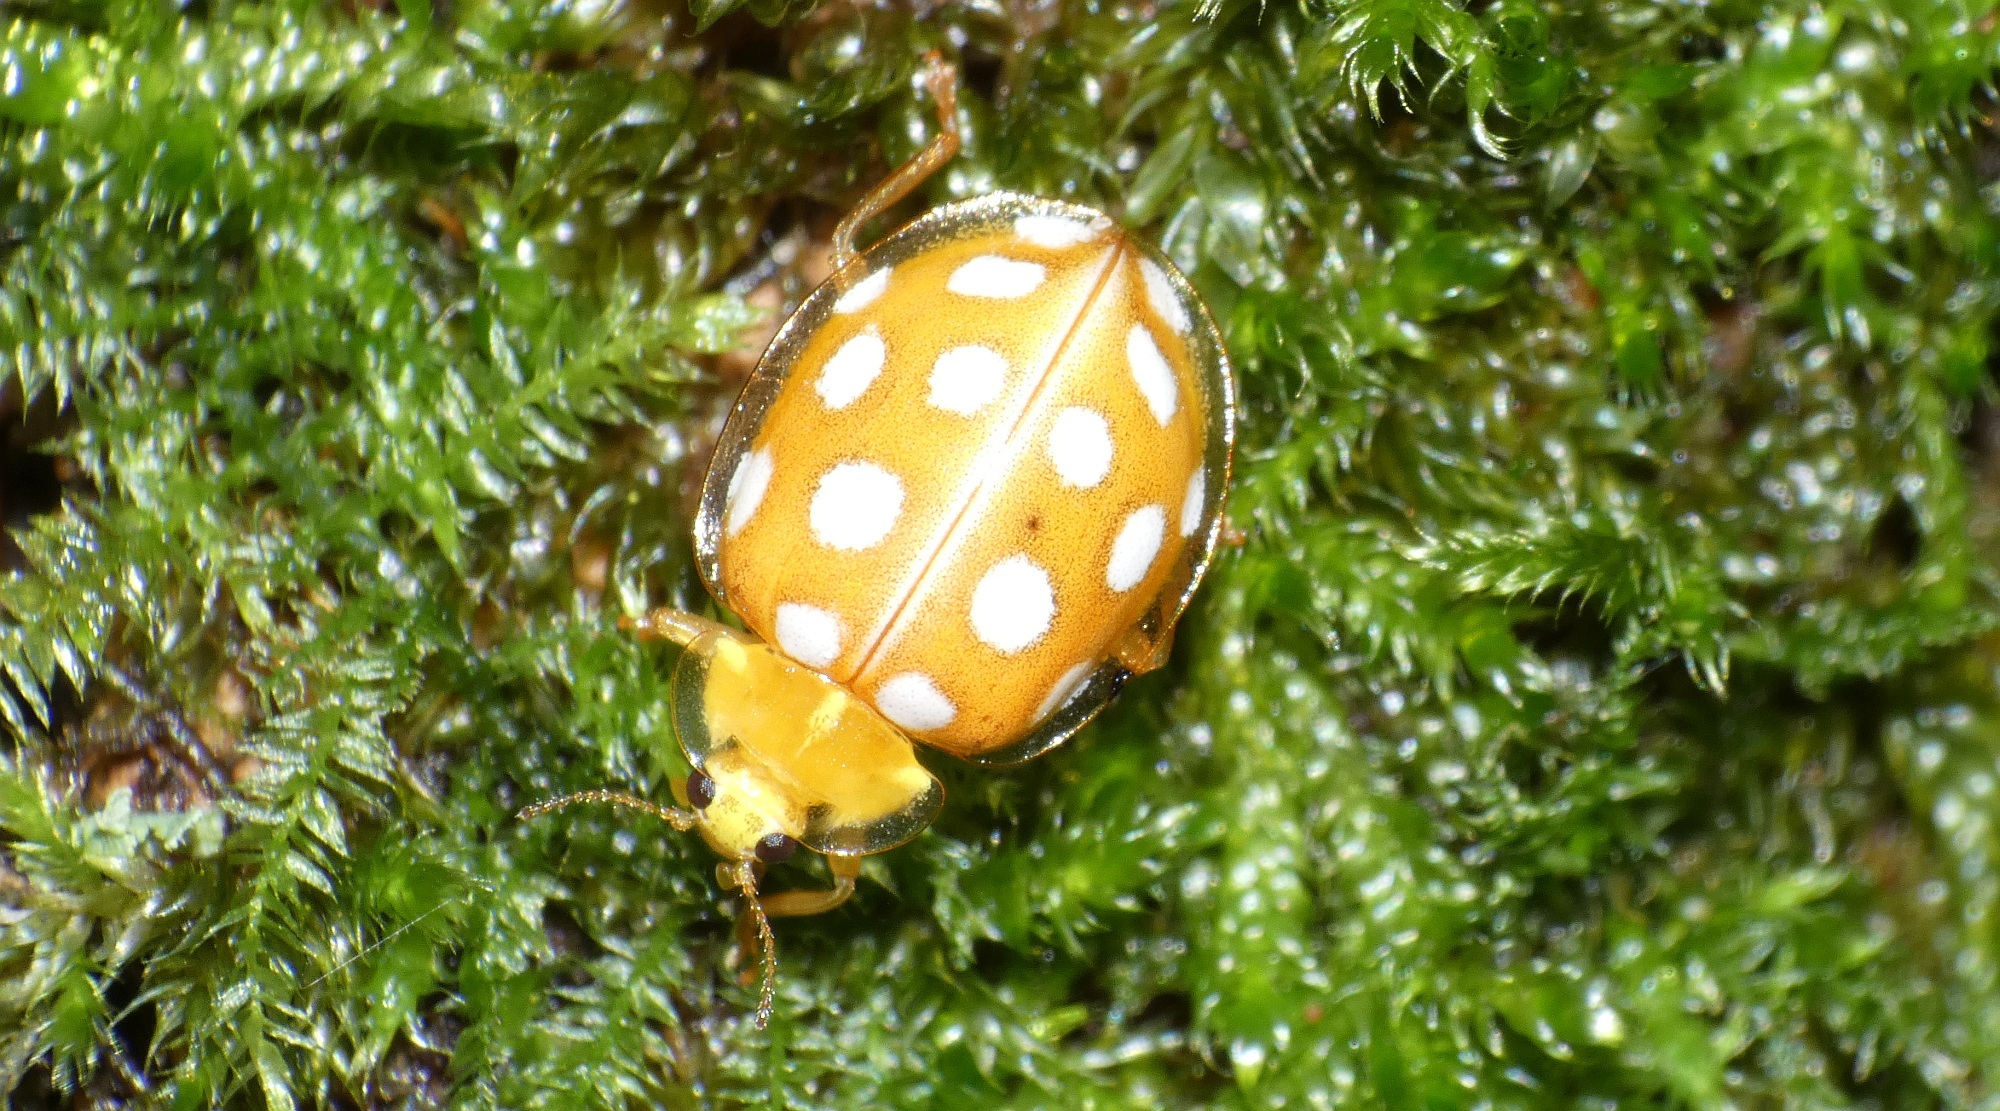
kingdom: Animalia
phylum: Arthropoda
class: Insecta
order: Coleoptera
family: Coccinellidae
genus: Halyzia
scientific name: Halyzia sedecimguttata
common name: Orange ladybird
